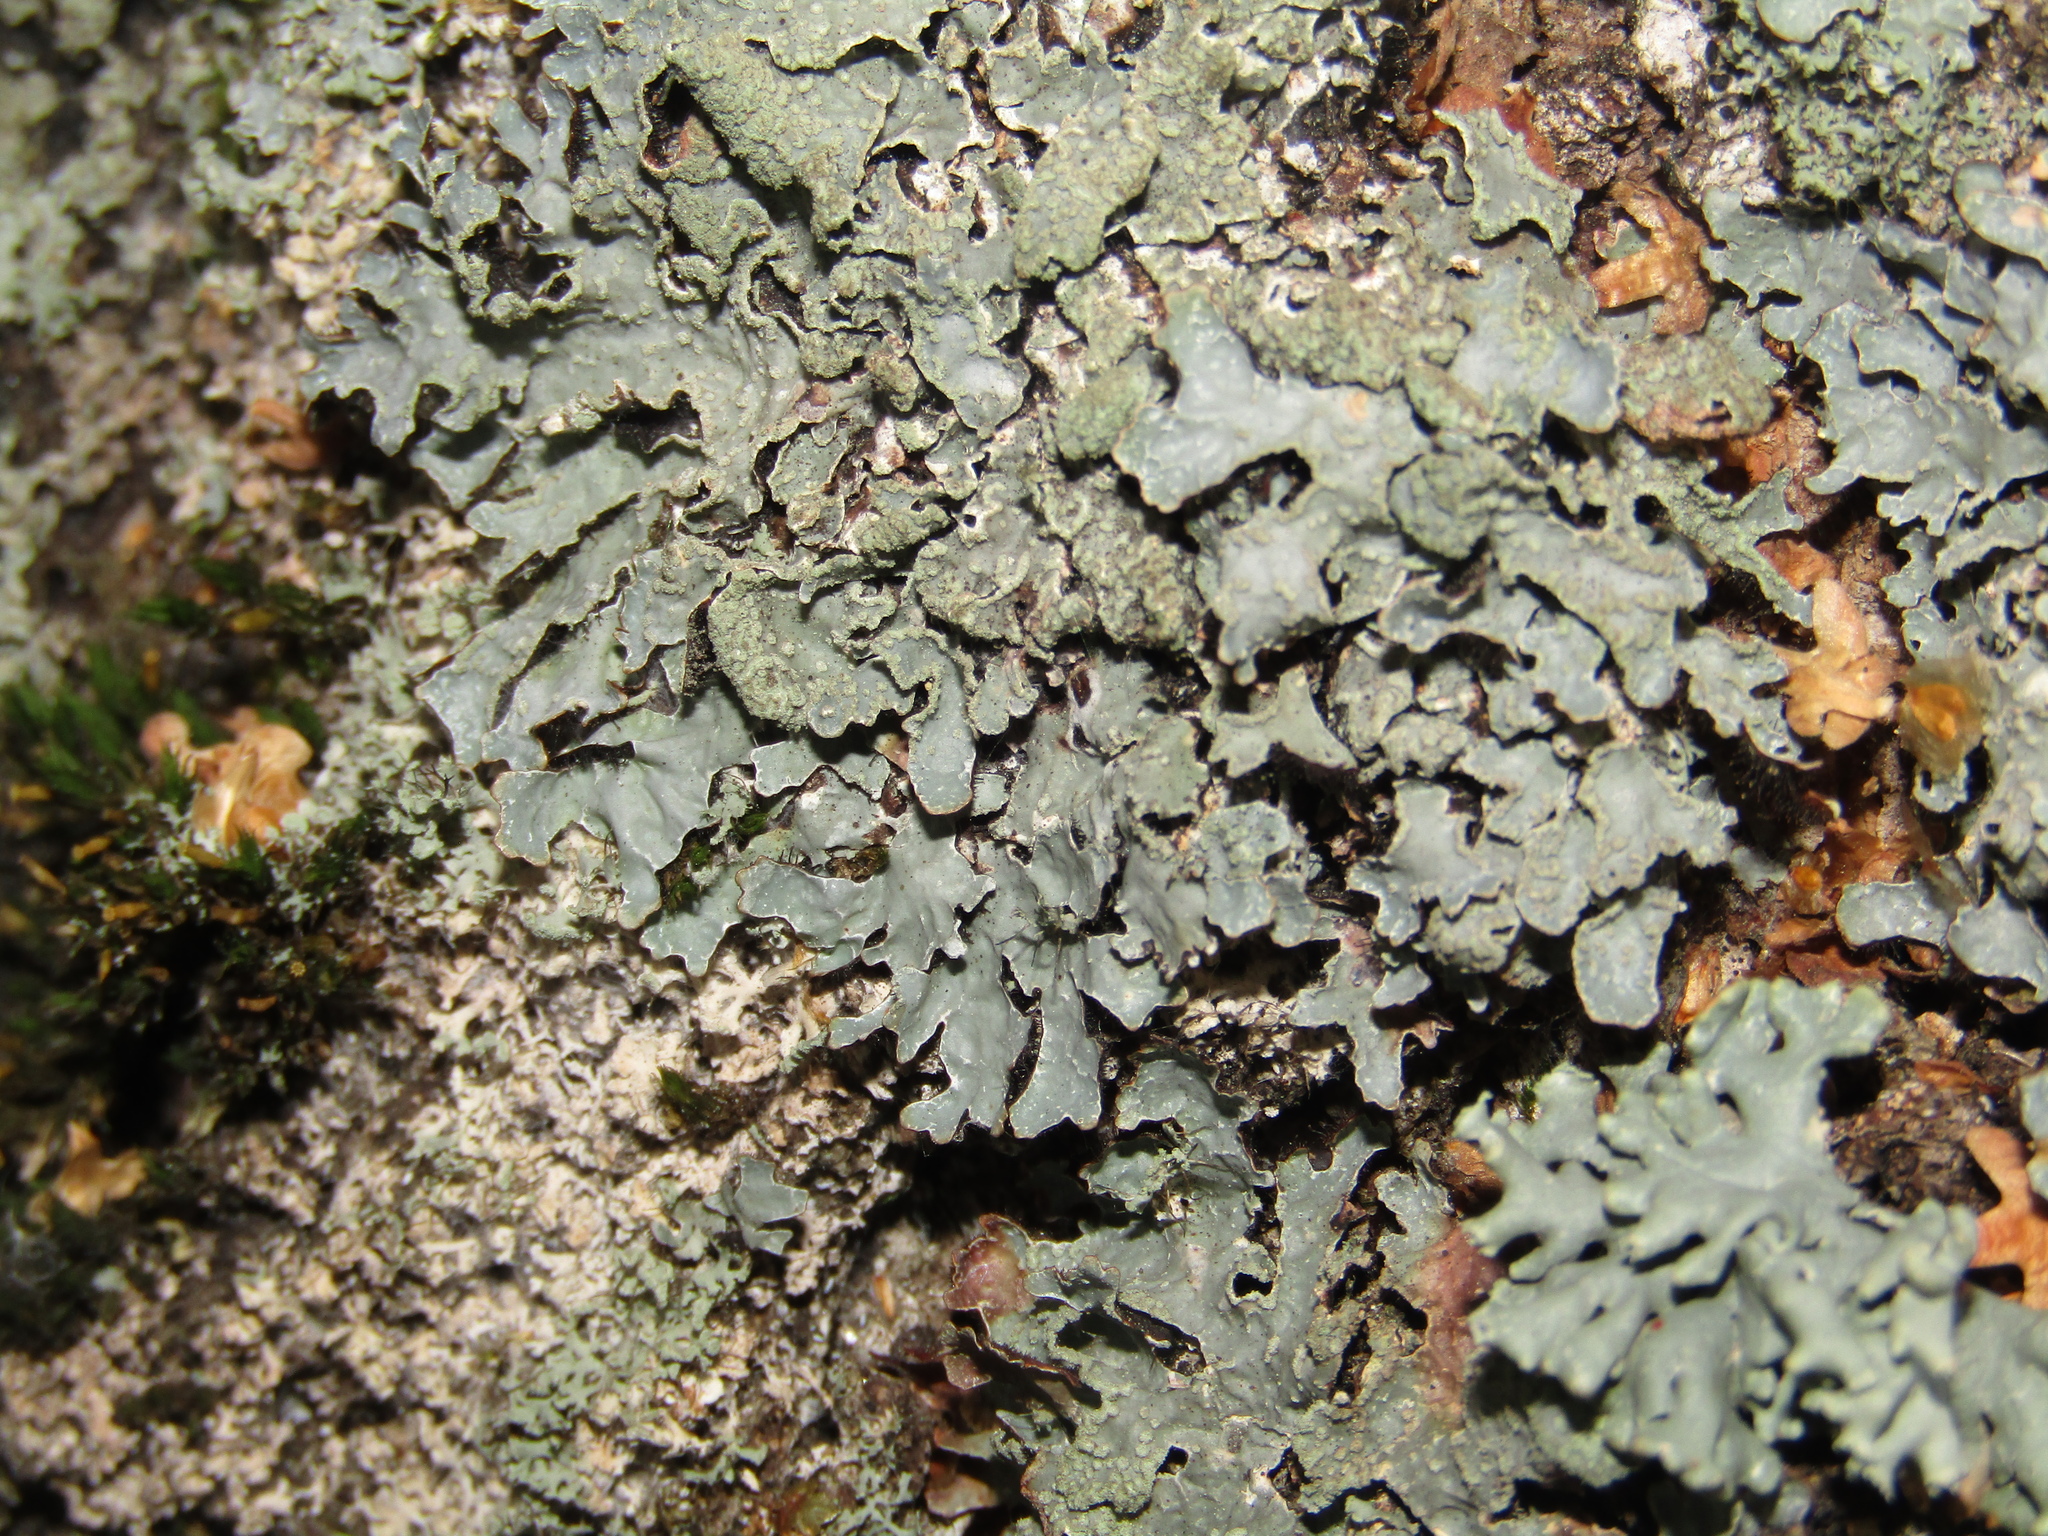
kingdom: Fungi
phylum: Ascomycota
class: Lecanoromycetes
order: Lecanorales
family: Parmeliaceae
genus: Parmelia
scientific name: Parmelia sulcata
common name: Netted shield lichen
